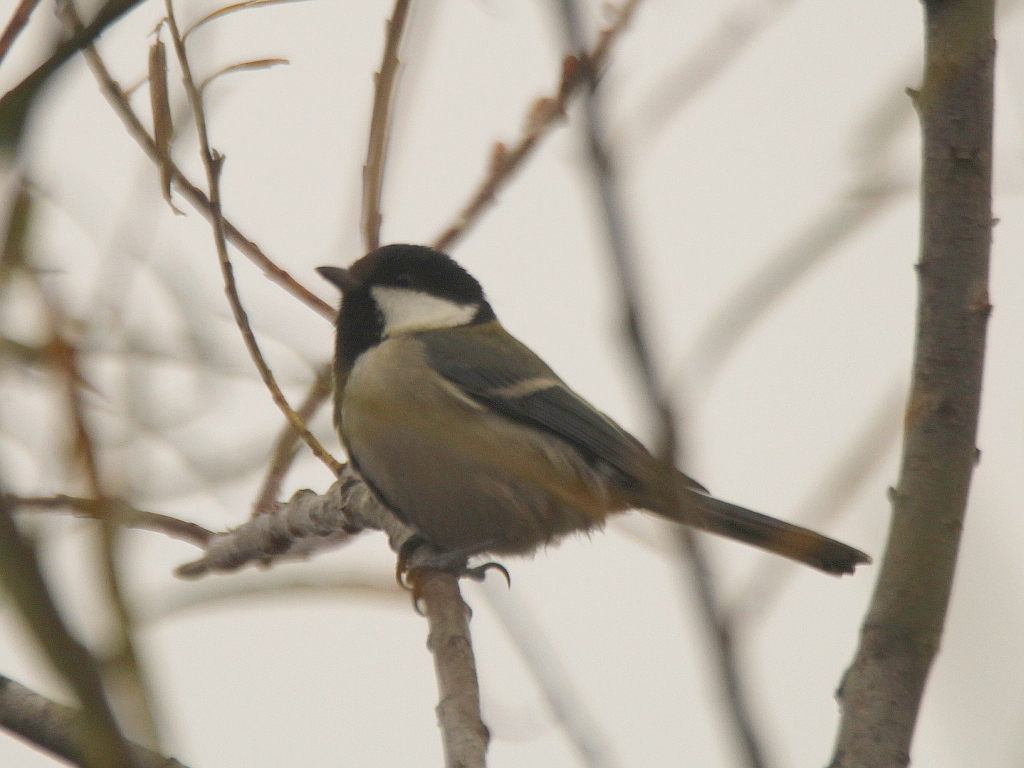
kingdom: Animalia
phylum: Chordata
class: Aves
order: Passeriformes
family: Paridae
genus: Parus
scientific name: Parus minor
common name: Japanese tit
